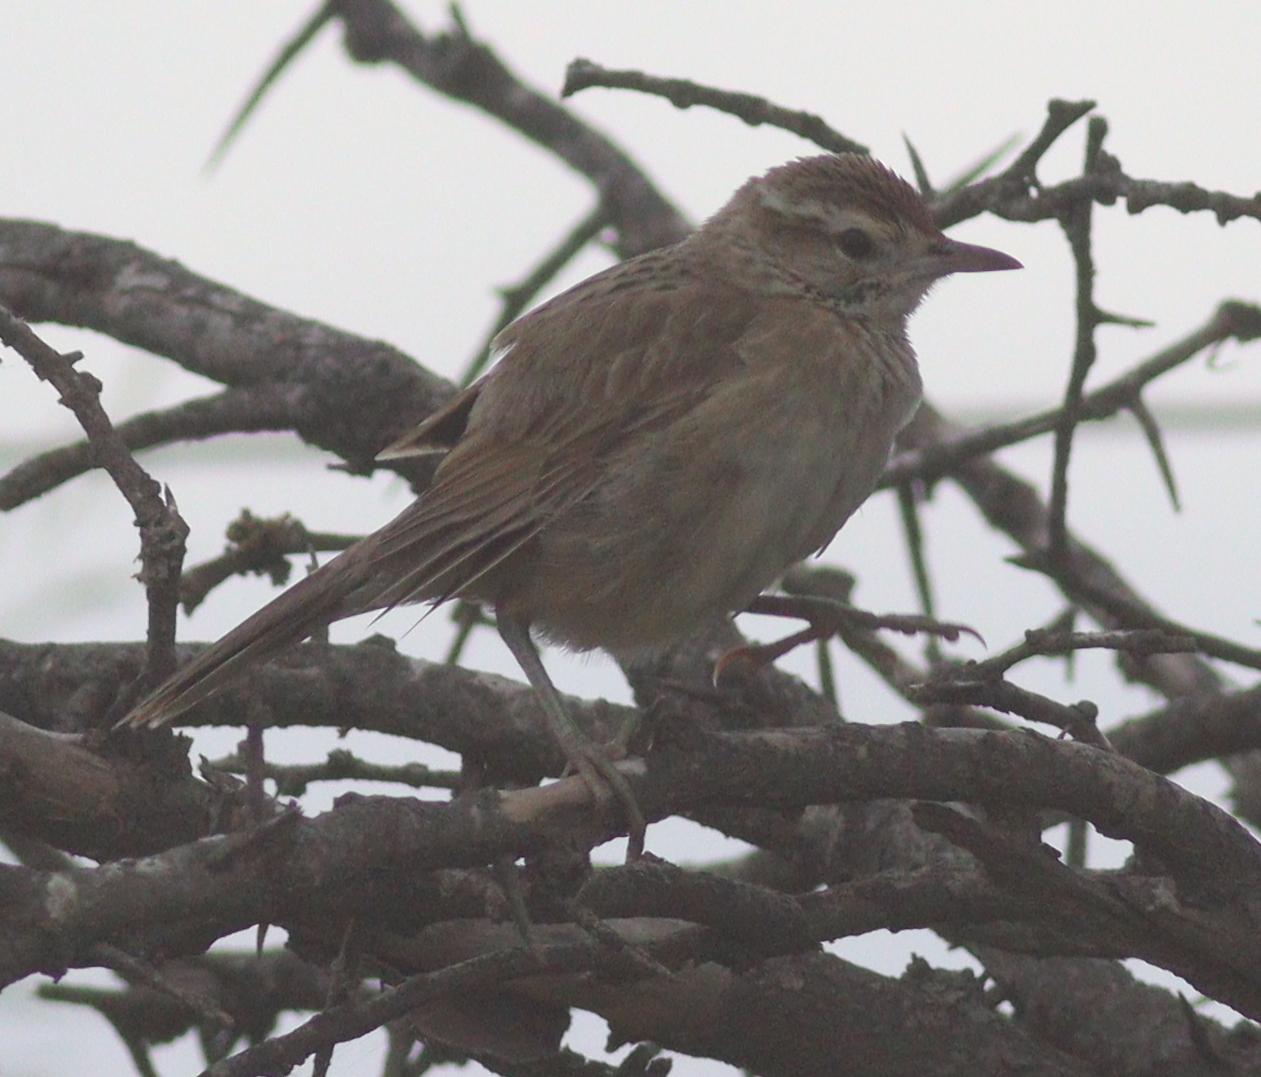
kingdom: Animalia
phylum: Chordata
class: Aves
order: Passeriformes
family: Furnariidae
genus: Anumbius
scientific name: Anumbius annumbi
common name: Firewood-gatherer
